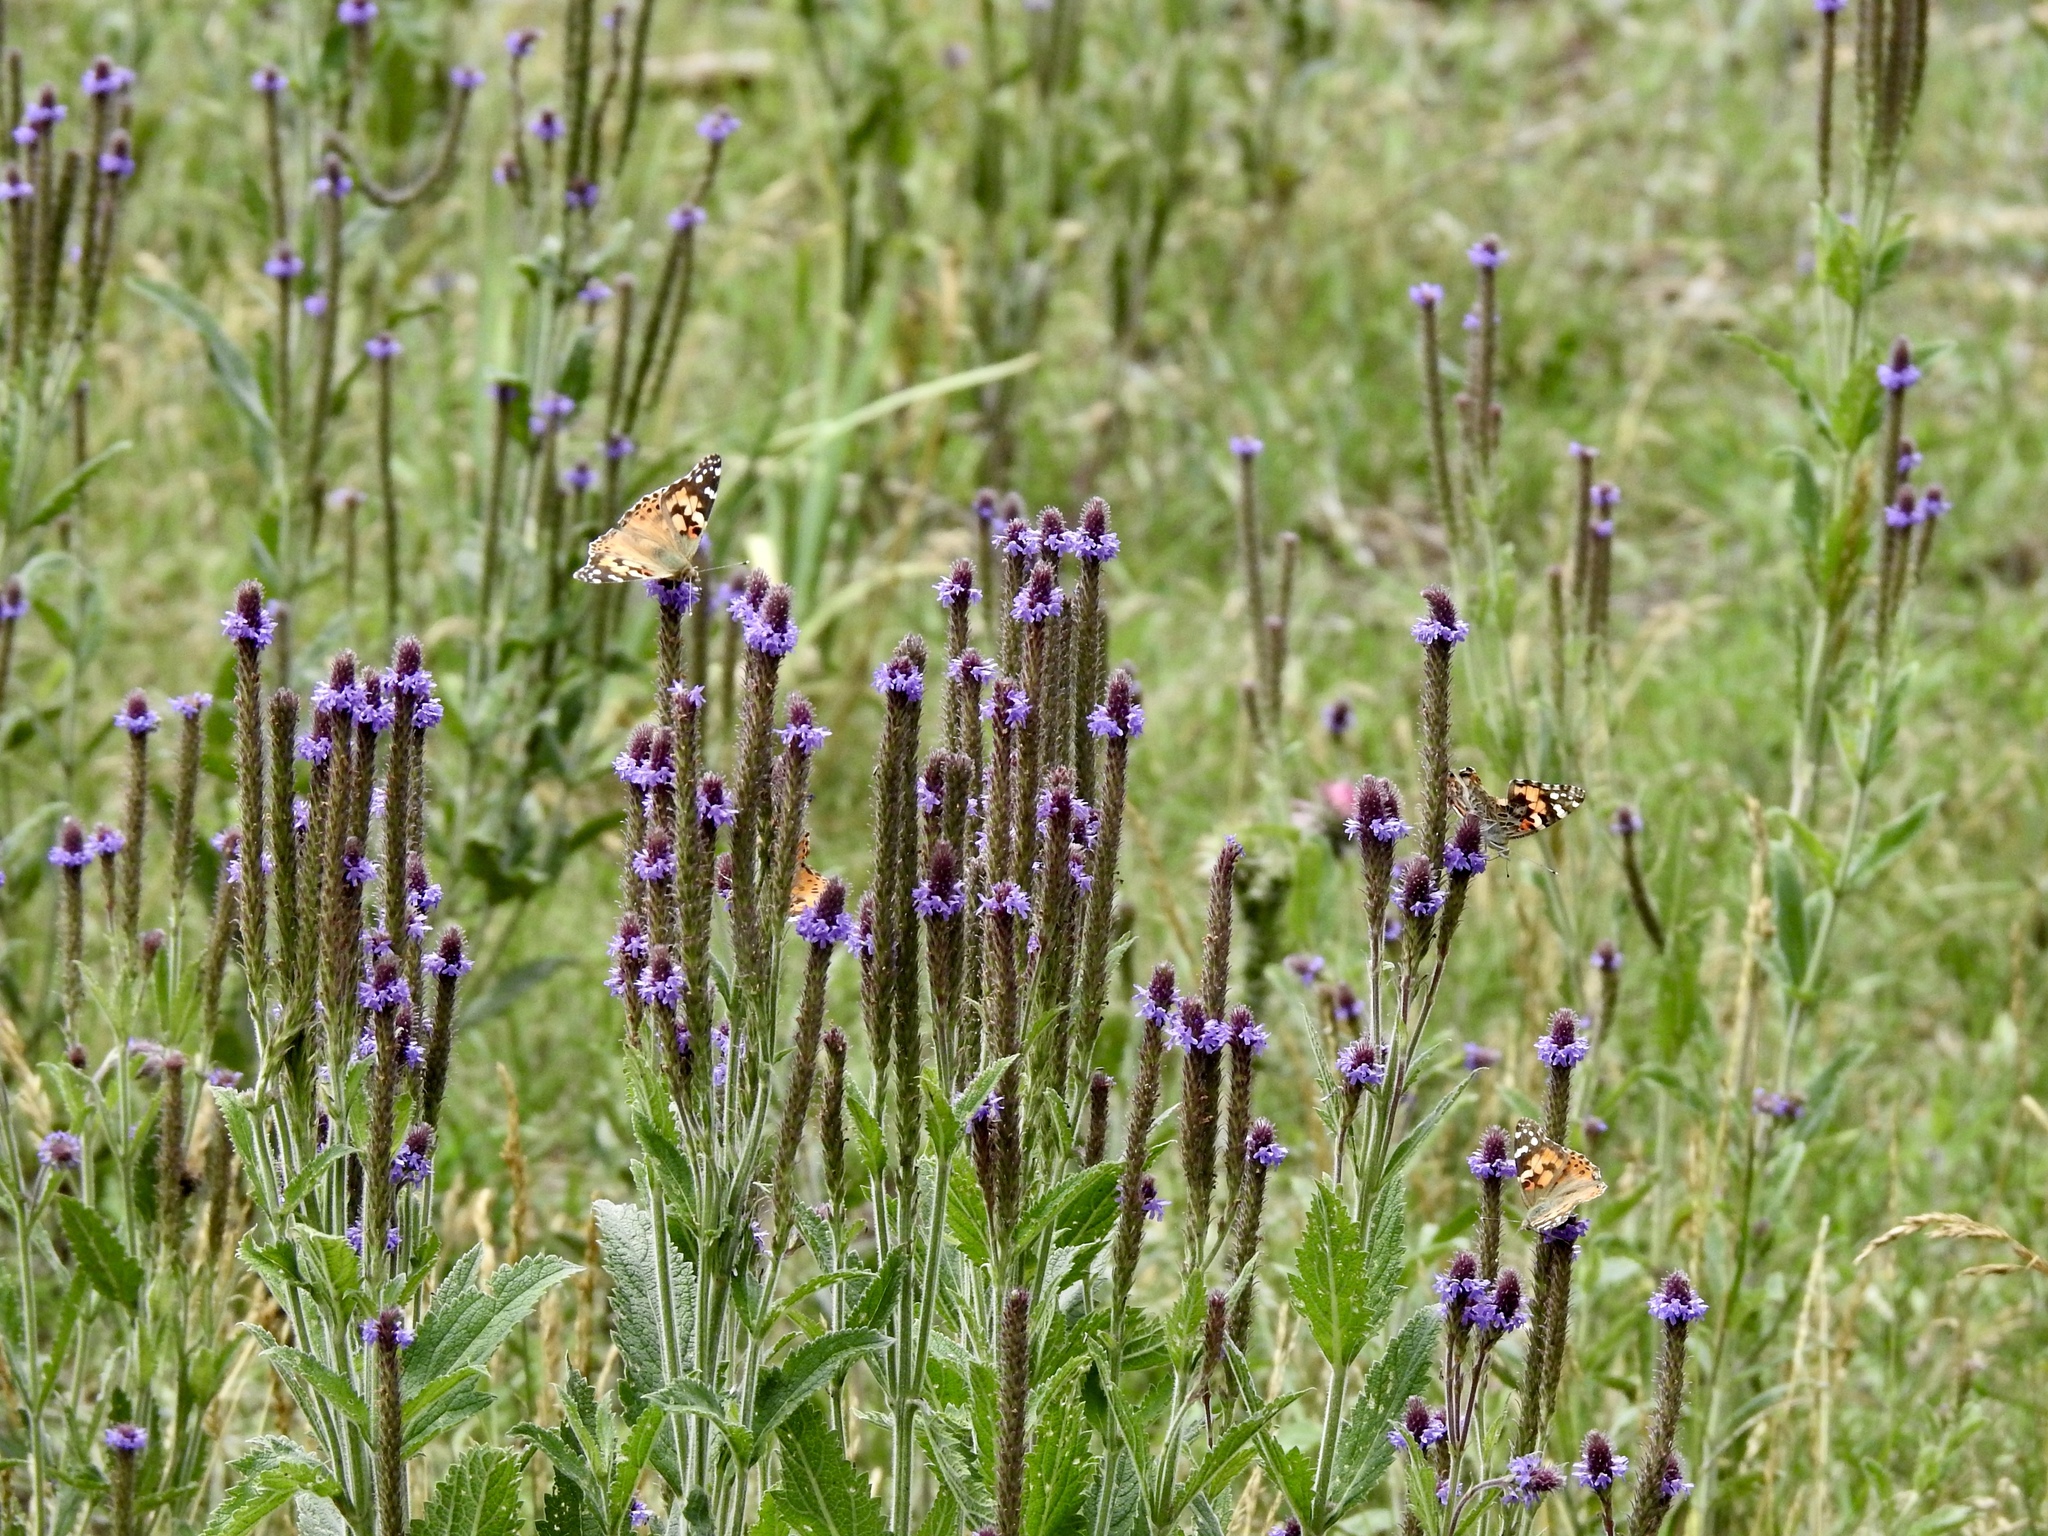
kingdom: Animalia
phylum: Arthropoda
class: Insecta
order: Lepidoptera
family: Nymphalidae
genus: Vanessa
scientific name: Vanessa cardui
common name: Painted lady
